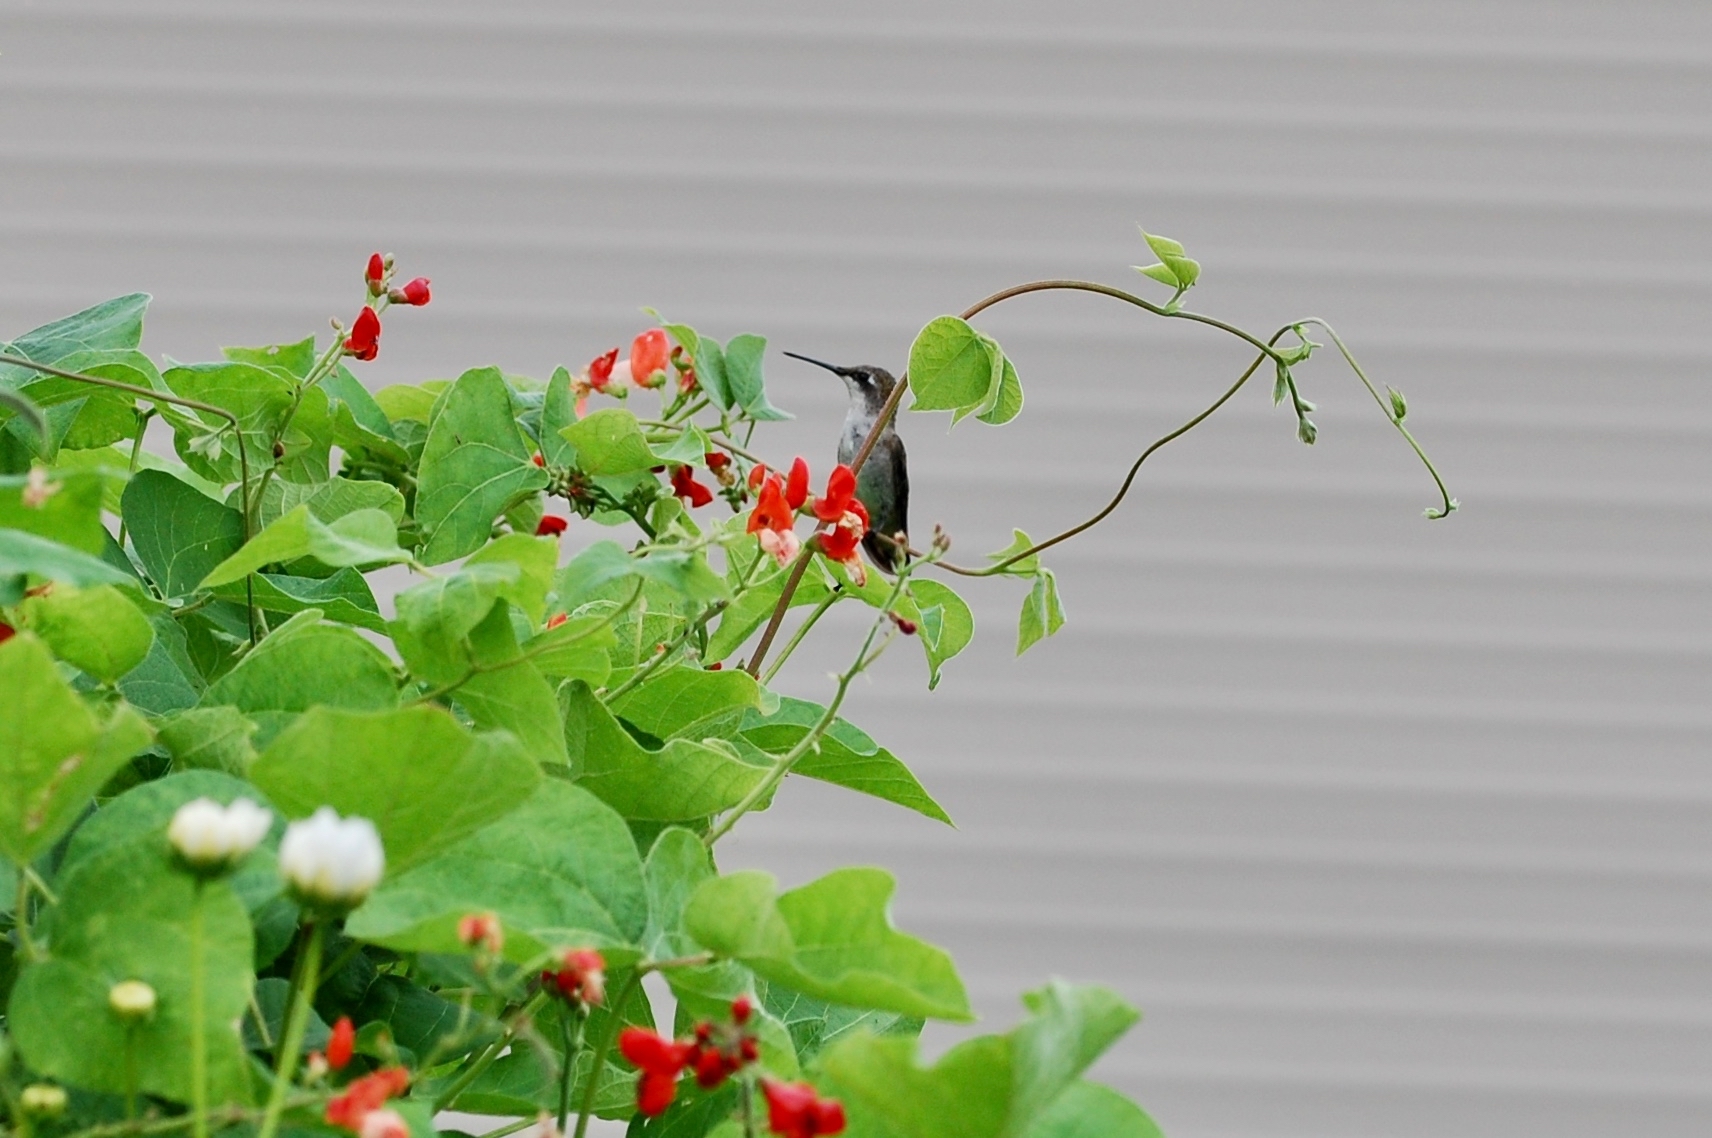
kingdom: Animalia
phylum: Chordata
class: Aves
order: Apodiformes
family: Trochilidae
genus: Archilochus
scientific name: Archilochus colubris
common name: Ruby-throated hummingbird
